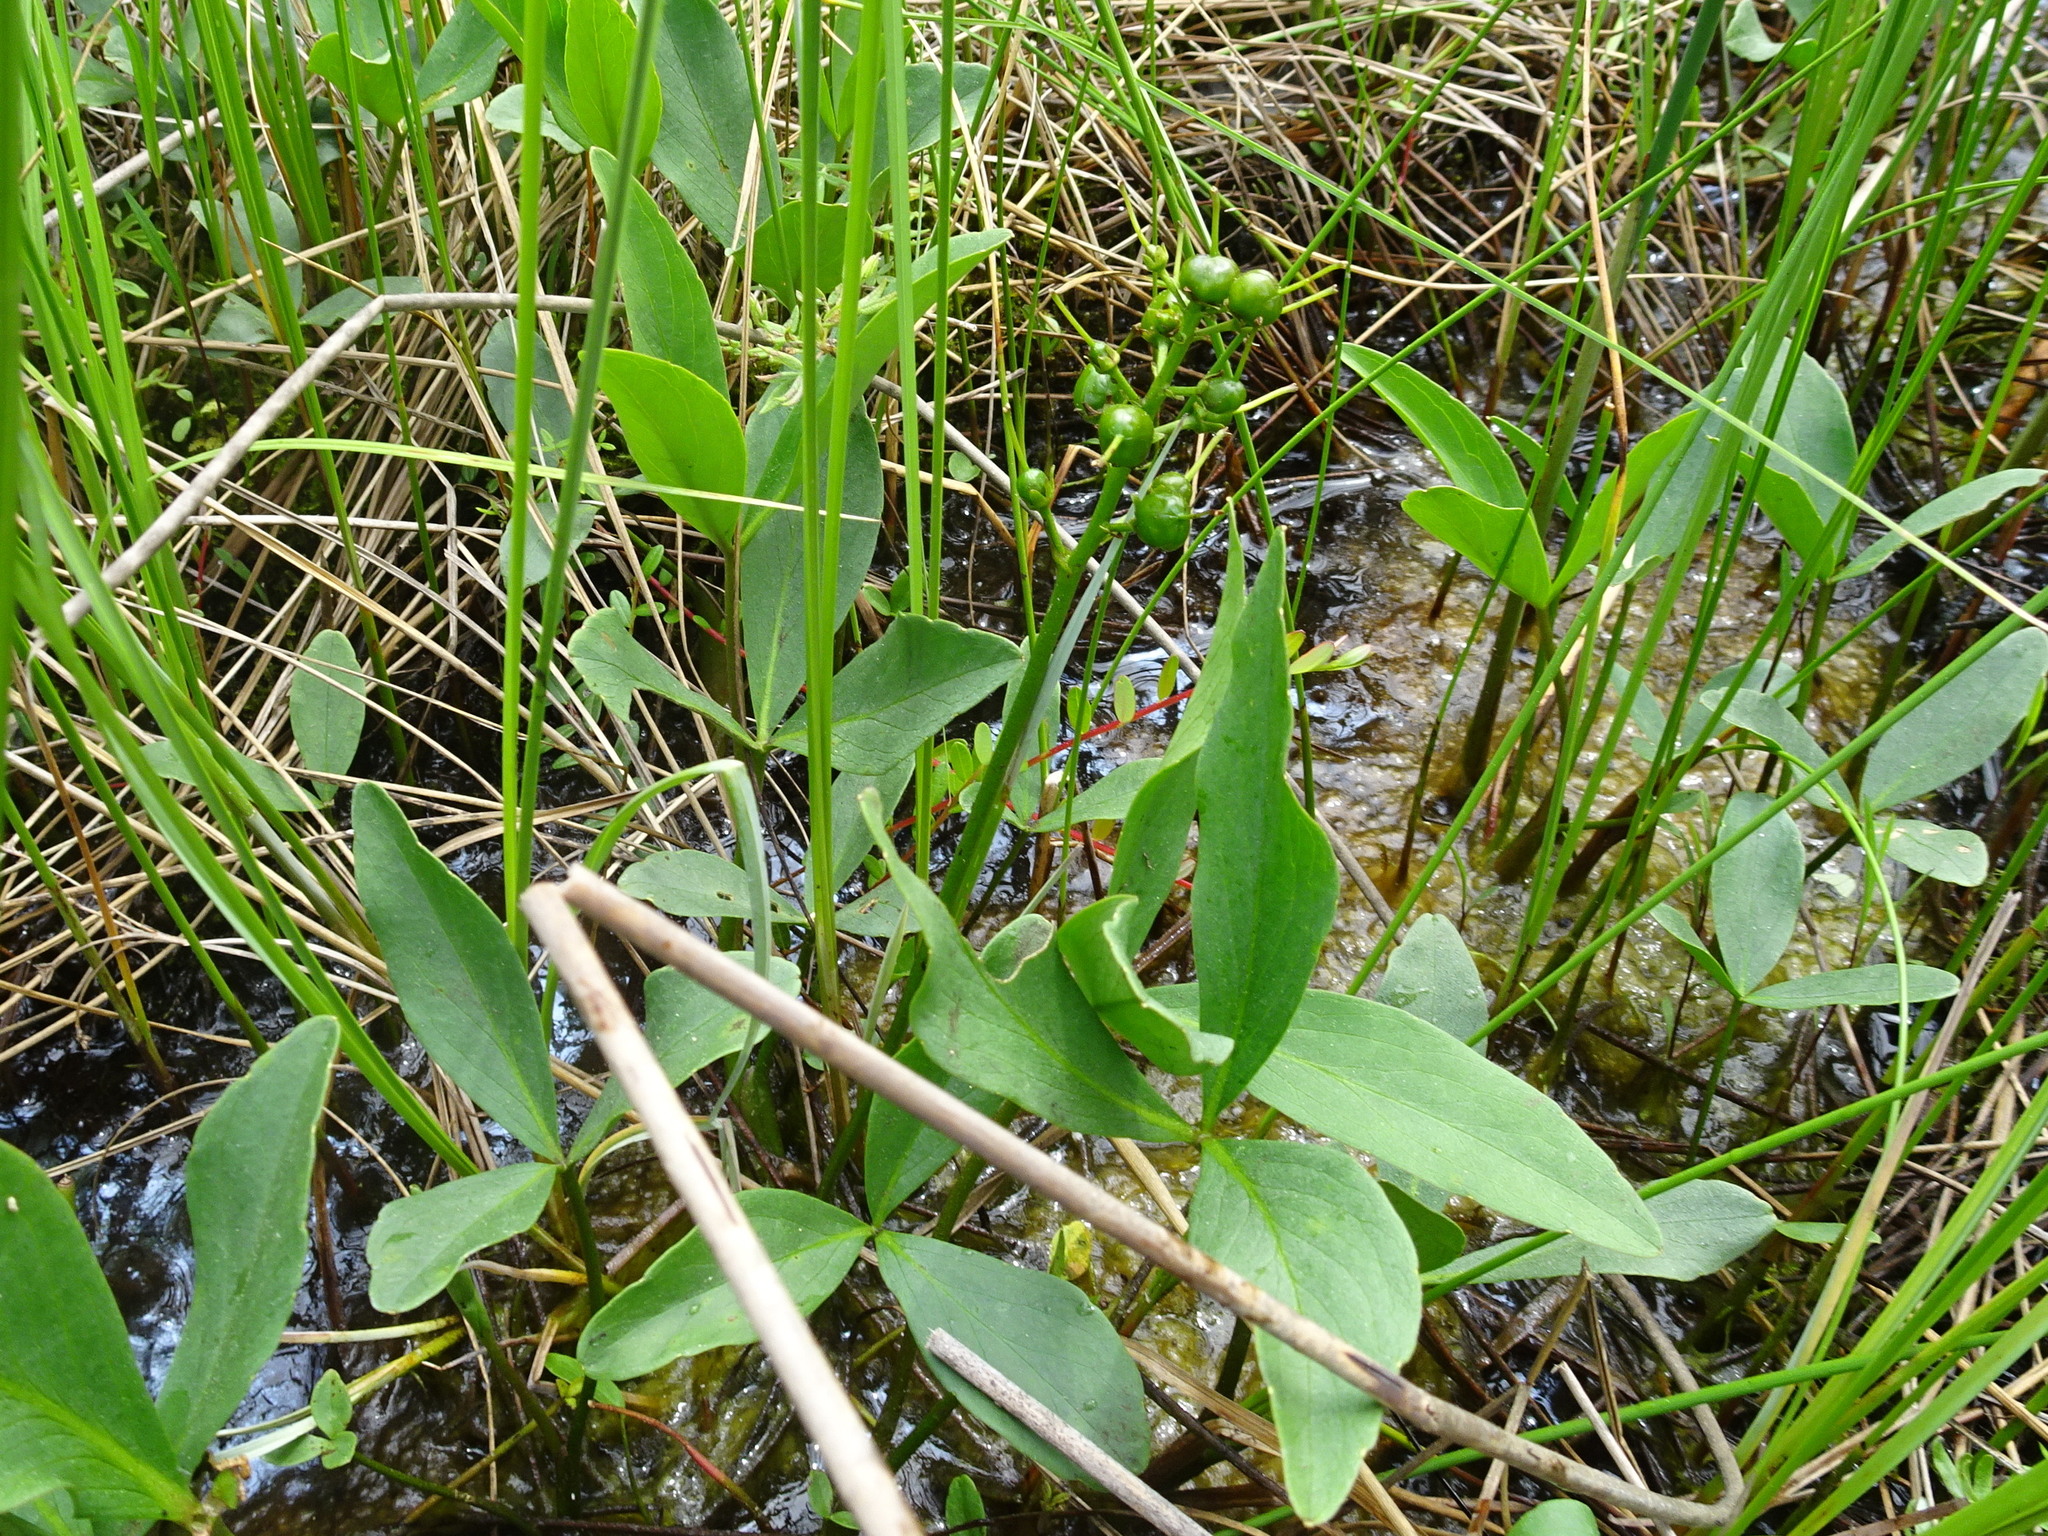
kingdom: Plantae
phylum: Tracheophyta
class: Magnoliopsida
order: Asterales
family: Menyanthaceae
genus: Menyanthes
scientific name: Menyanthes trifoliata
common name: Bogbean
